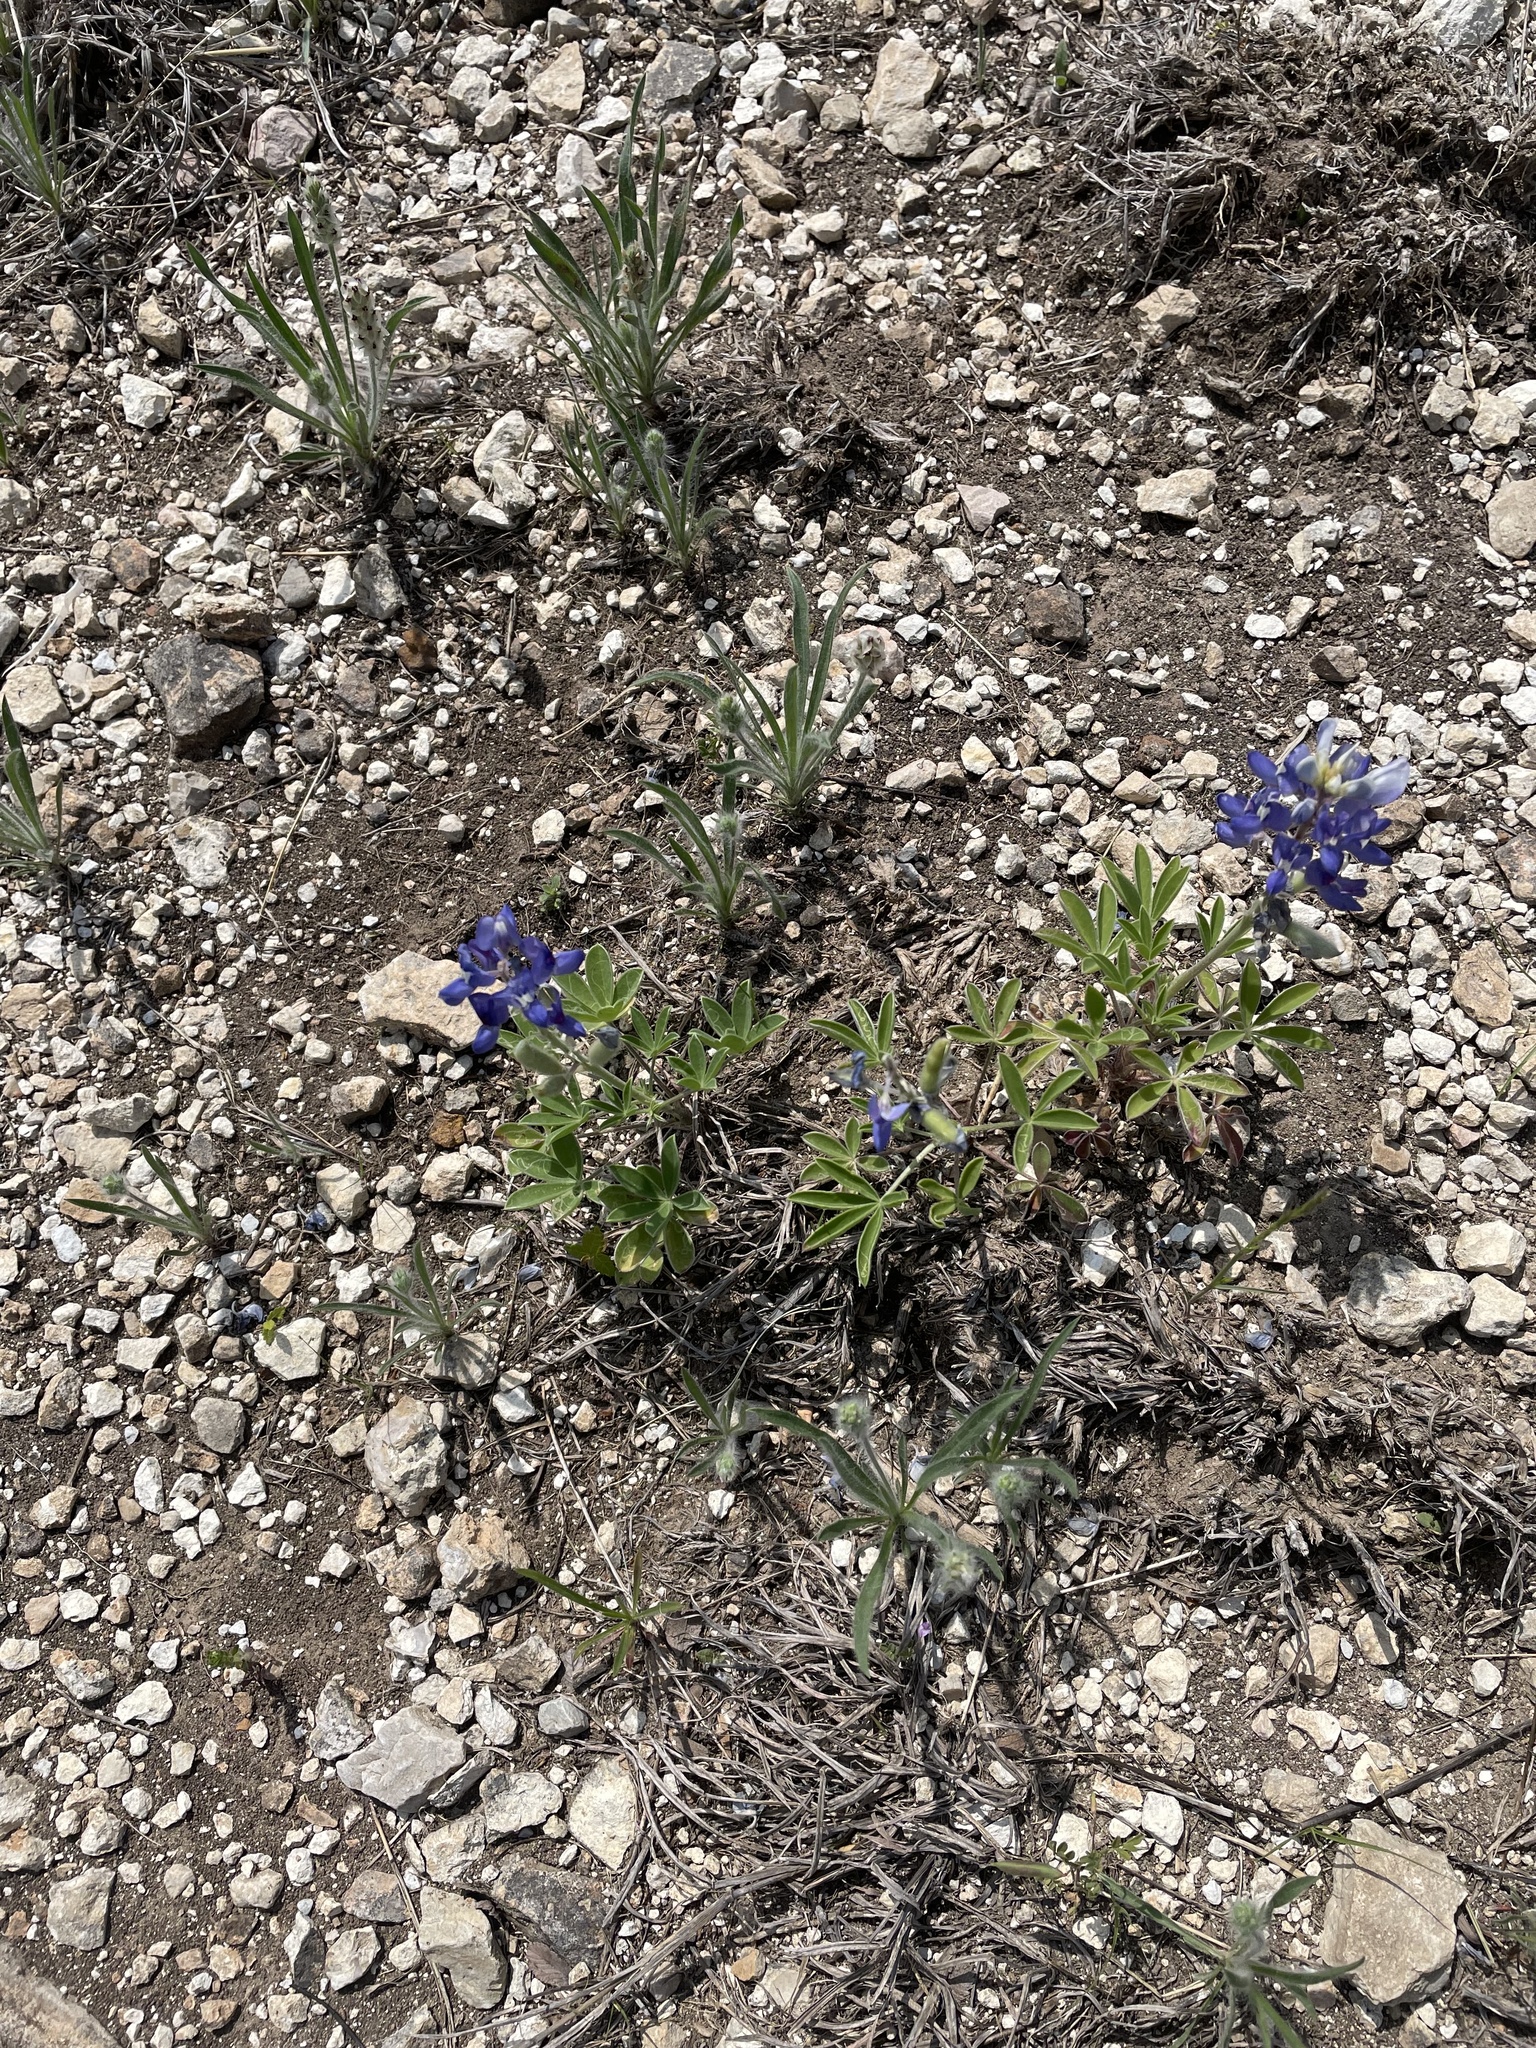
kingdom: Plantae
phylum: Tracheophyta
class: Magnoliopsida
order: Fabales
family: Fabaceae
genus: Lupinus
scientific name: Lupinus texensis
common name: Texas bluebonnet
